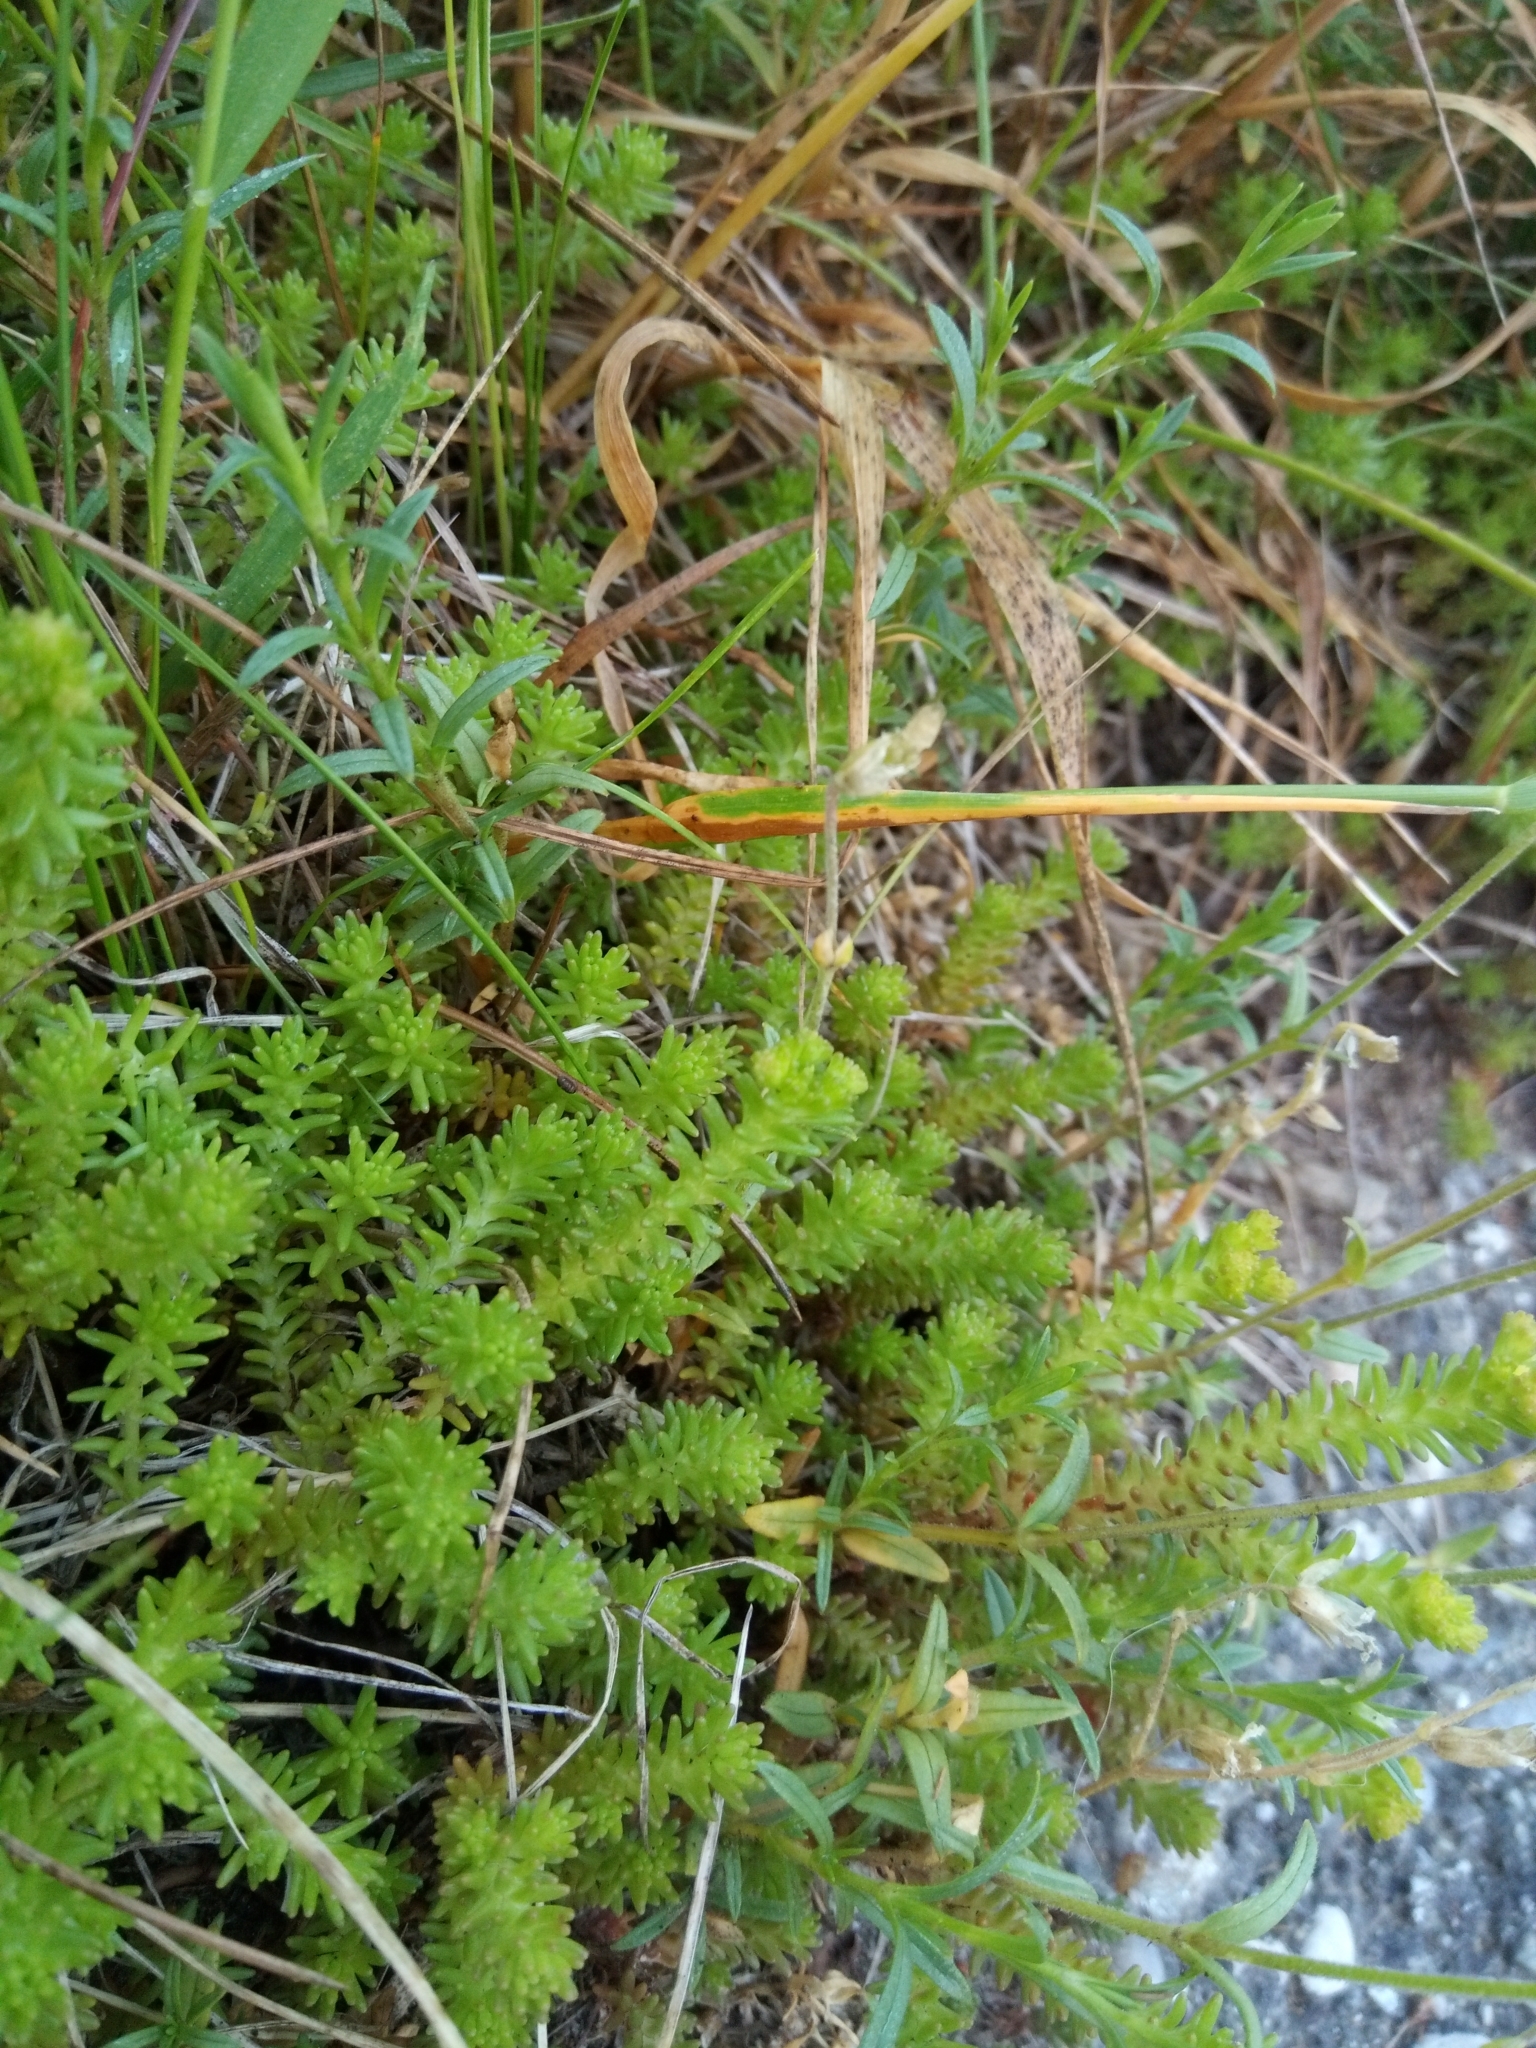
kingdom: Plantae
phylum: Tracheophyta
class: Magnoliopsida
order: Saxifragales
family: Crassulaceae
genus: Sedum
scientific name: Sedum sexangulare
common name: Tasteless stonecrop
